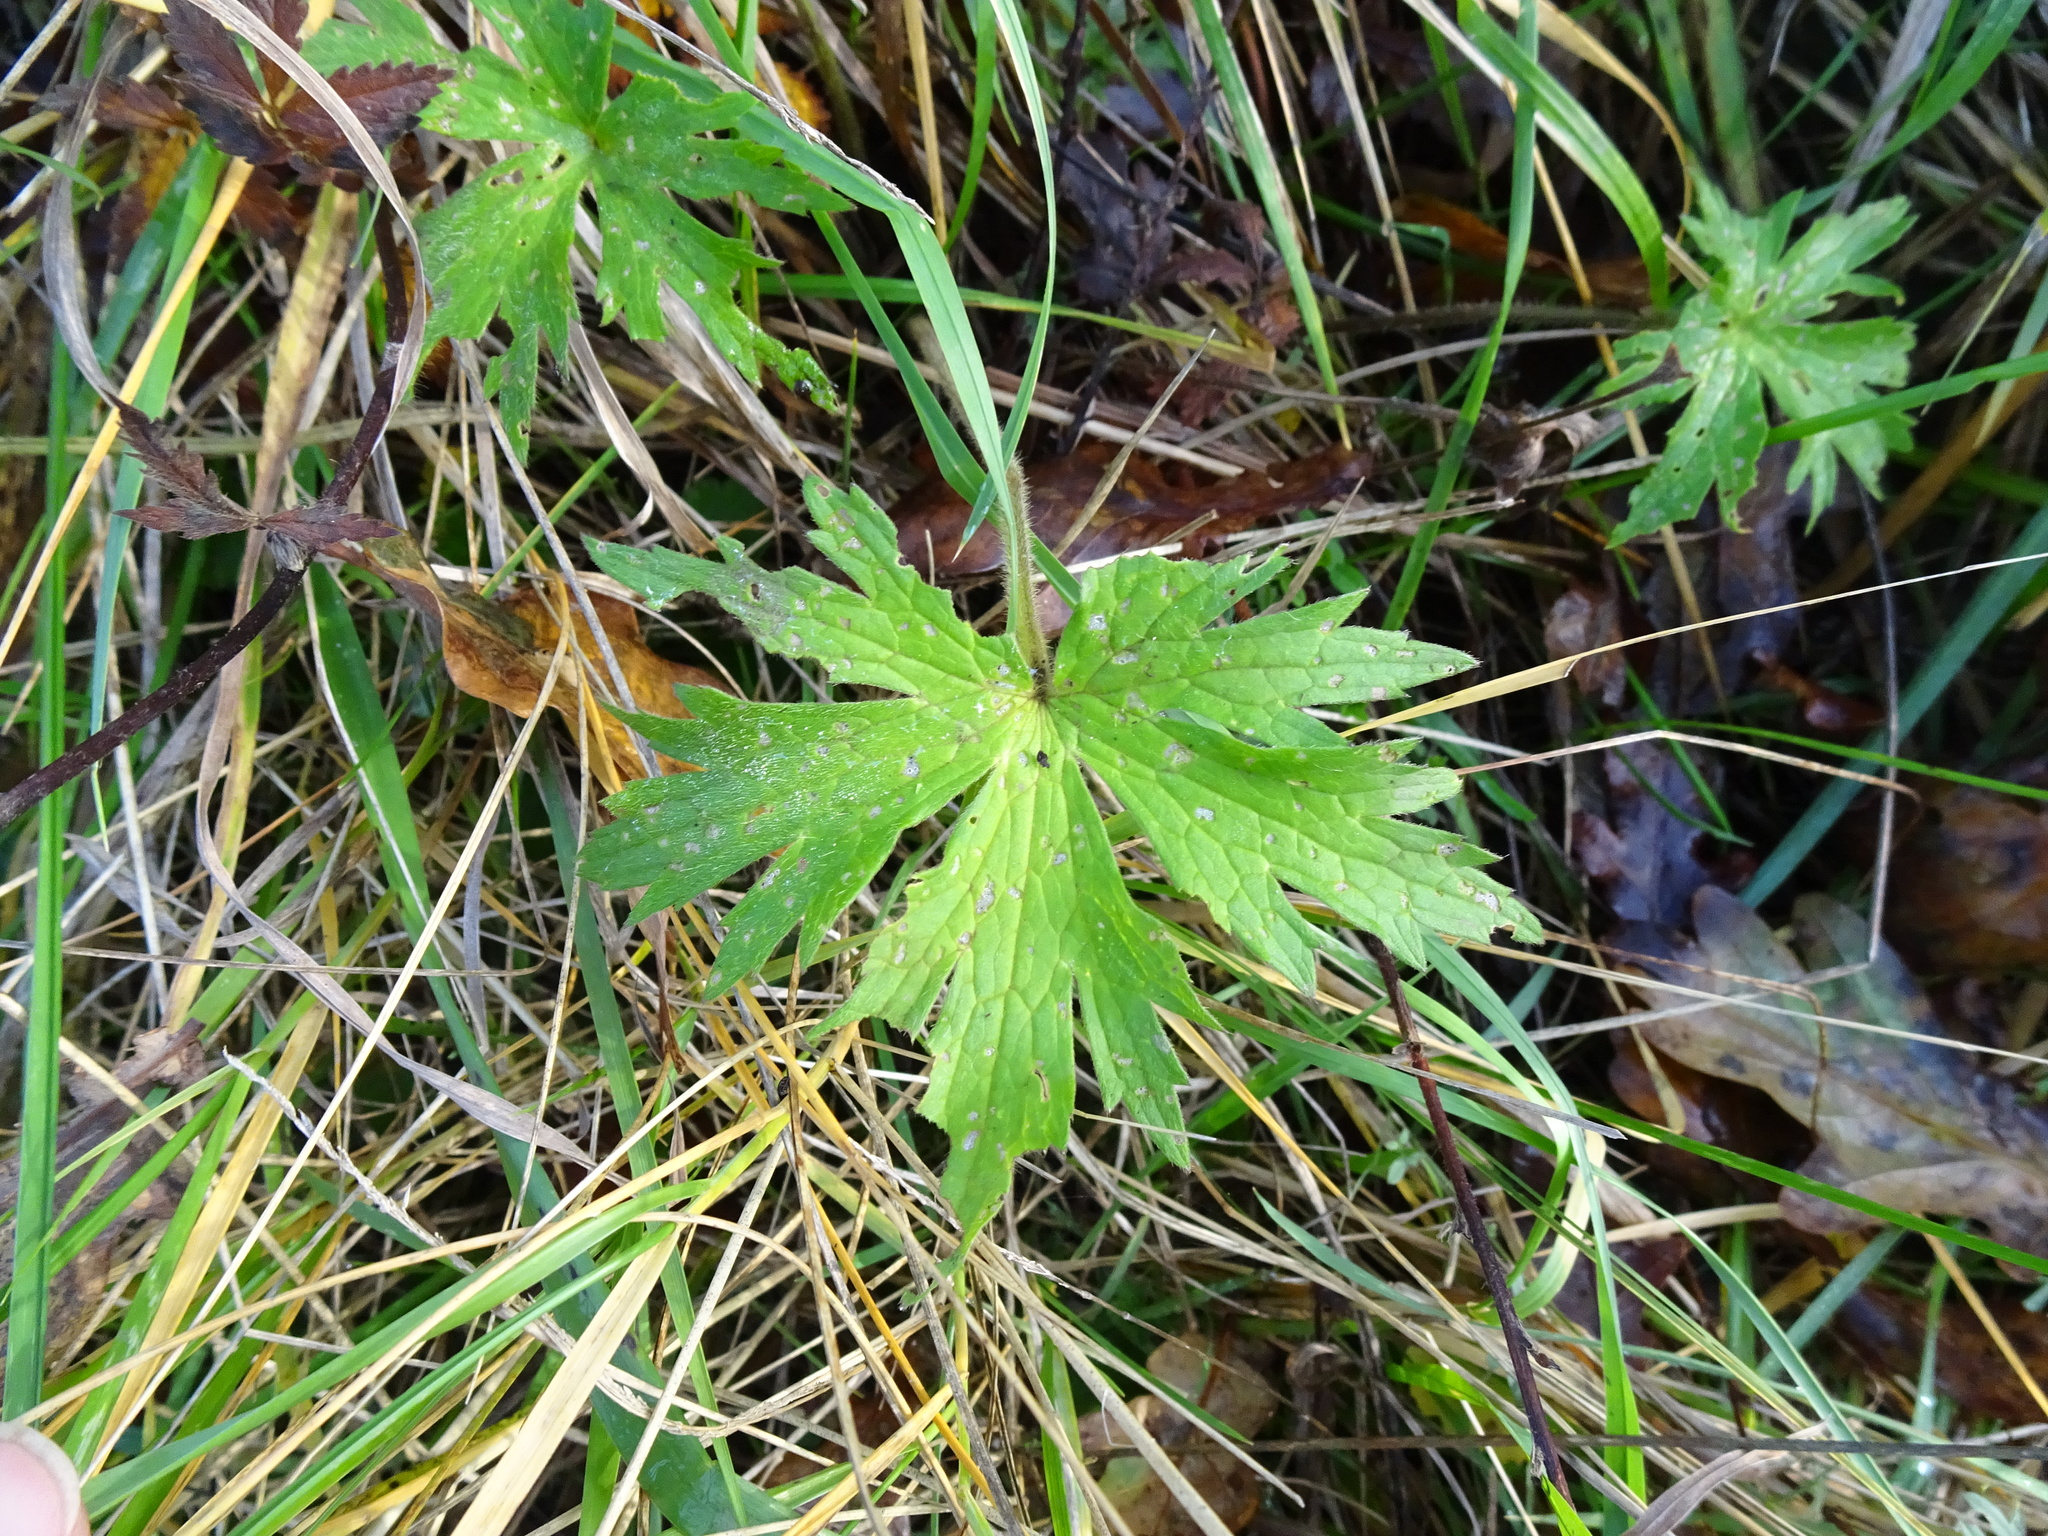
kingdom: Plantae
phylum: Tracheophyta
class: Magnoliopsida
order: Ranunculales
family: Ranunculaceae
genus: Ranunculus
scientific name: Ranunculus acris
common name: Meadow buttercup
